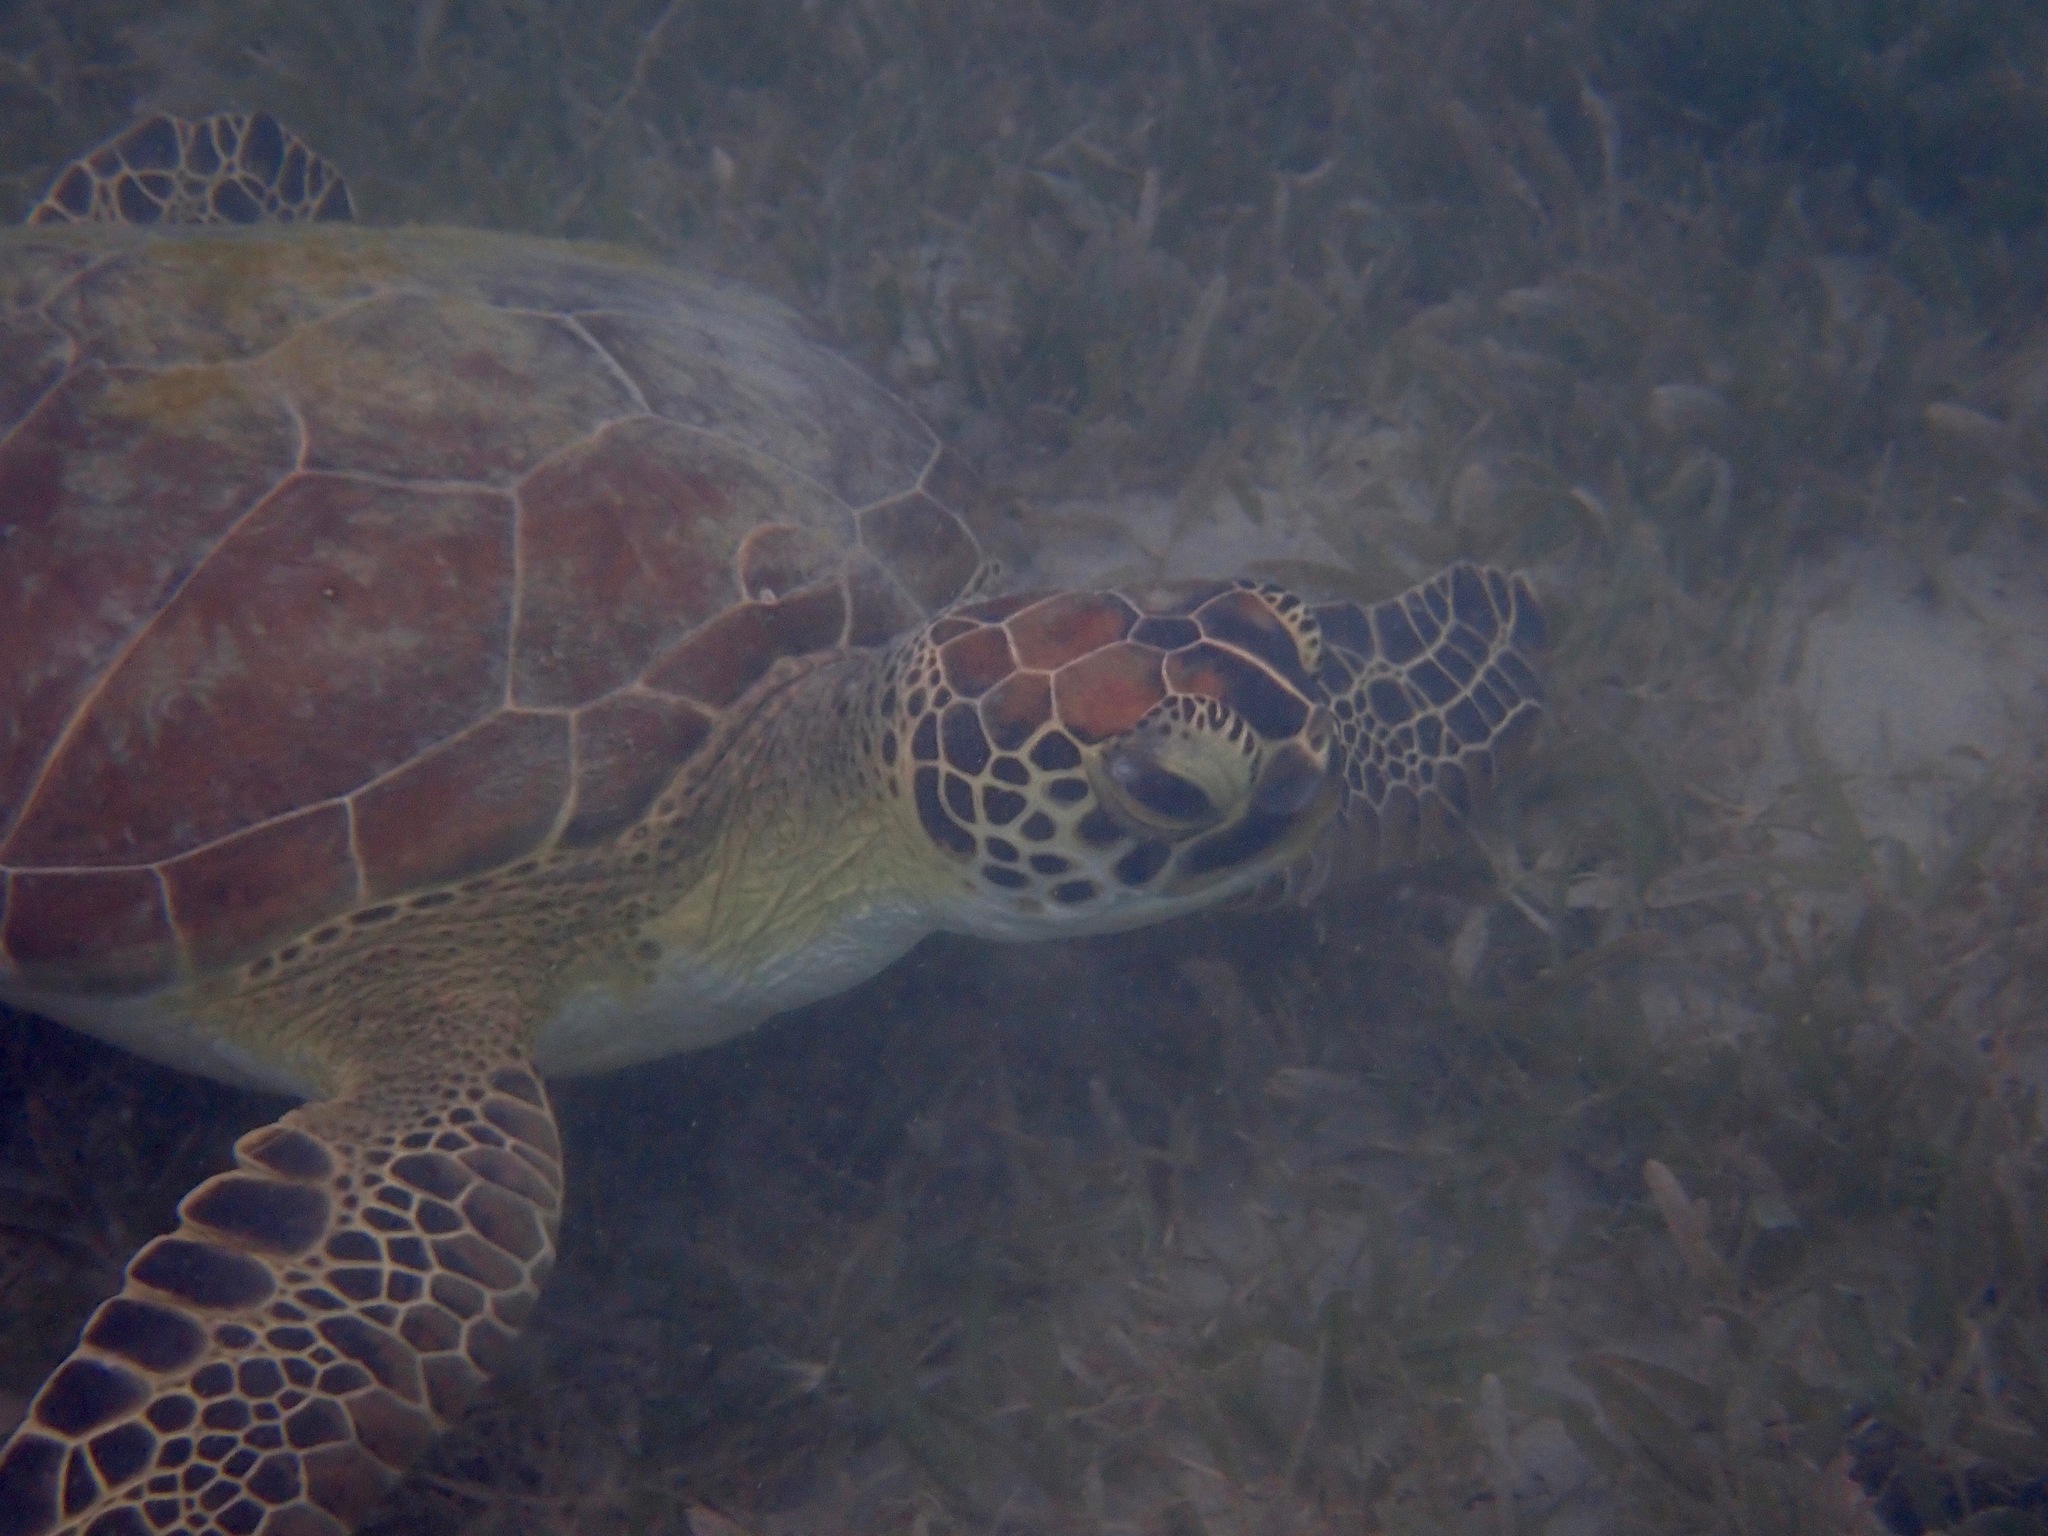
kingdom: Animalia
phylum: Chordata
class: Testudines
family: Cheloniidae
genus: Chelonia
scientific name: Chelonia mydas
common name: Green turtle
